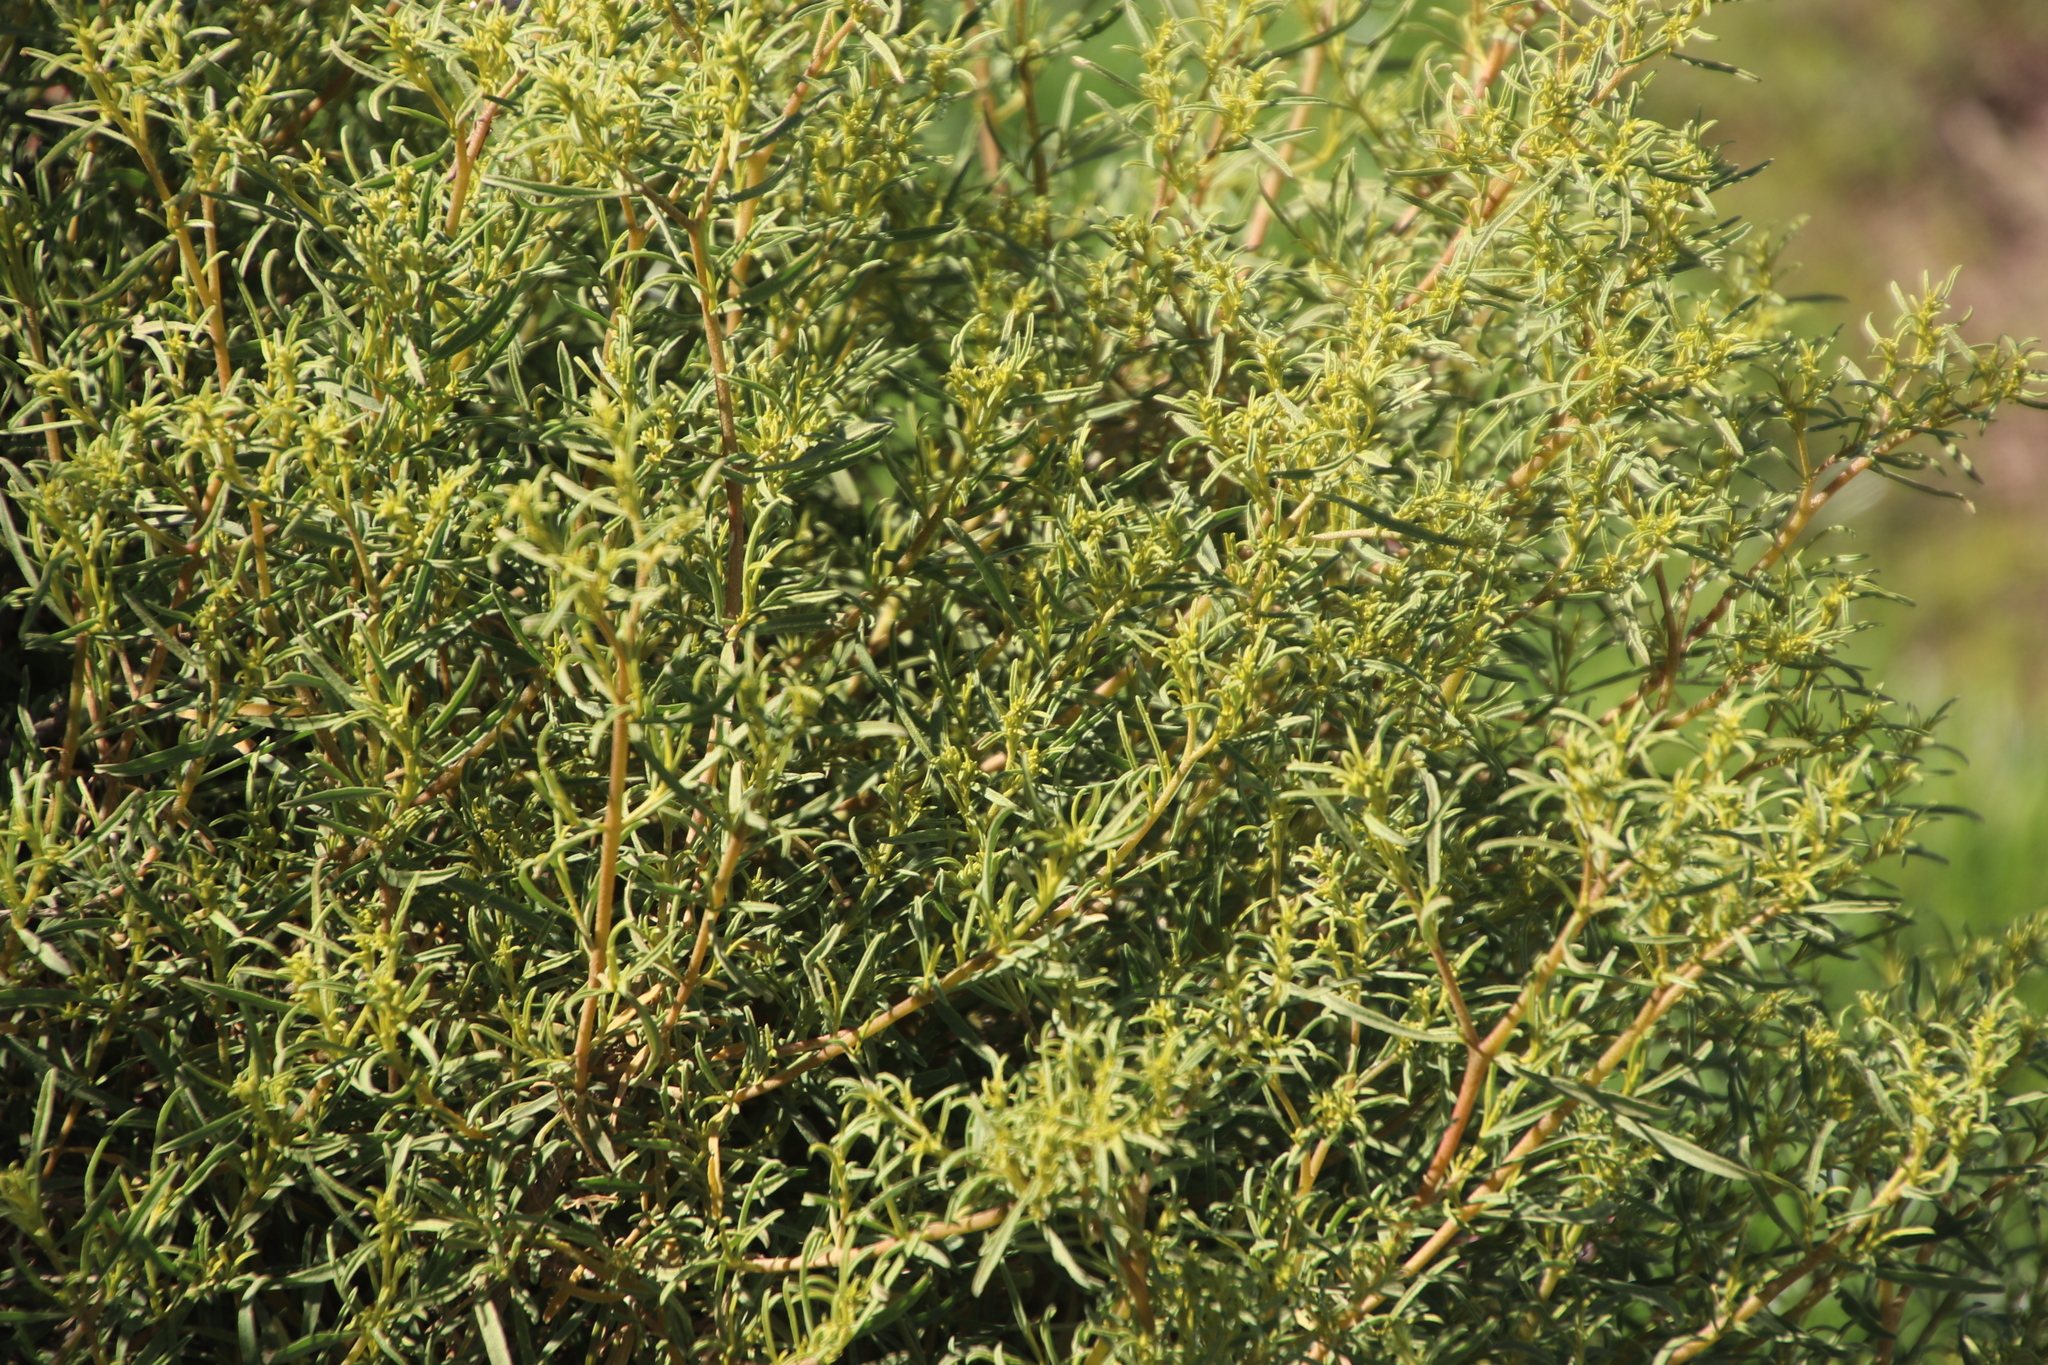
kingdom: Plantae
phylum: Tracheophyta
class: Magnoliopsida
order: Caryophyllales
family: Aizoaceae
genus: Aizoon
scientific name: Aizoon africanum
